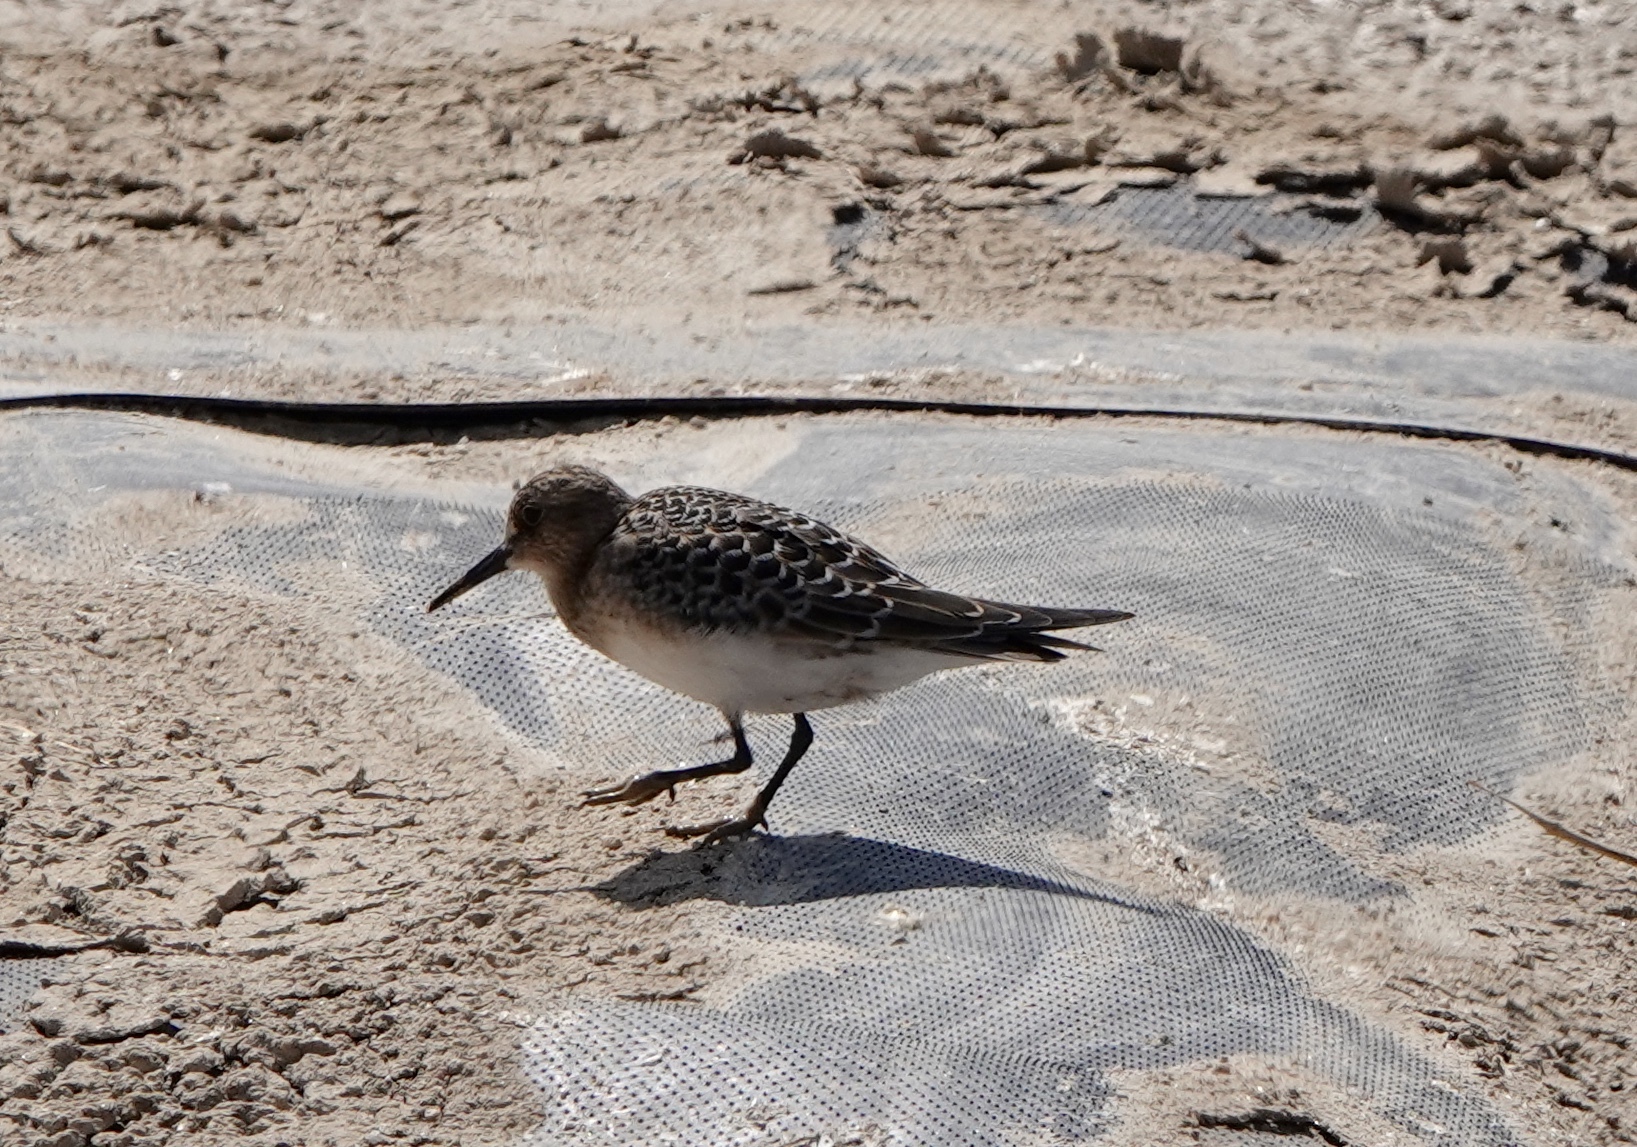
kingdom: Animalia
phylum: Chordata
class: Aves
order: Charadriiformes
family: Scolopacidae
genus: Calidris
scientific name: Calidris bairdii
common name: Baird's sandpiper
